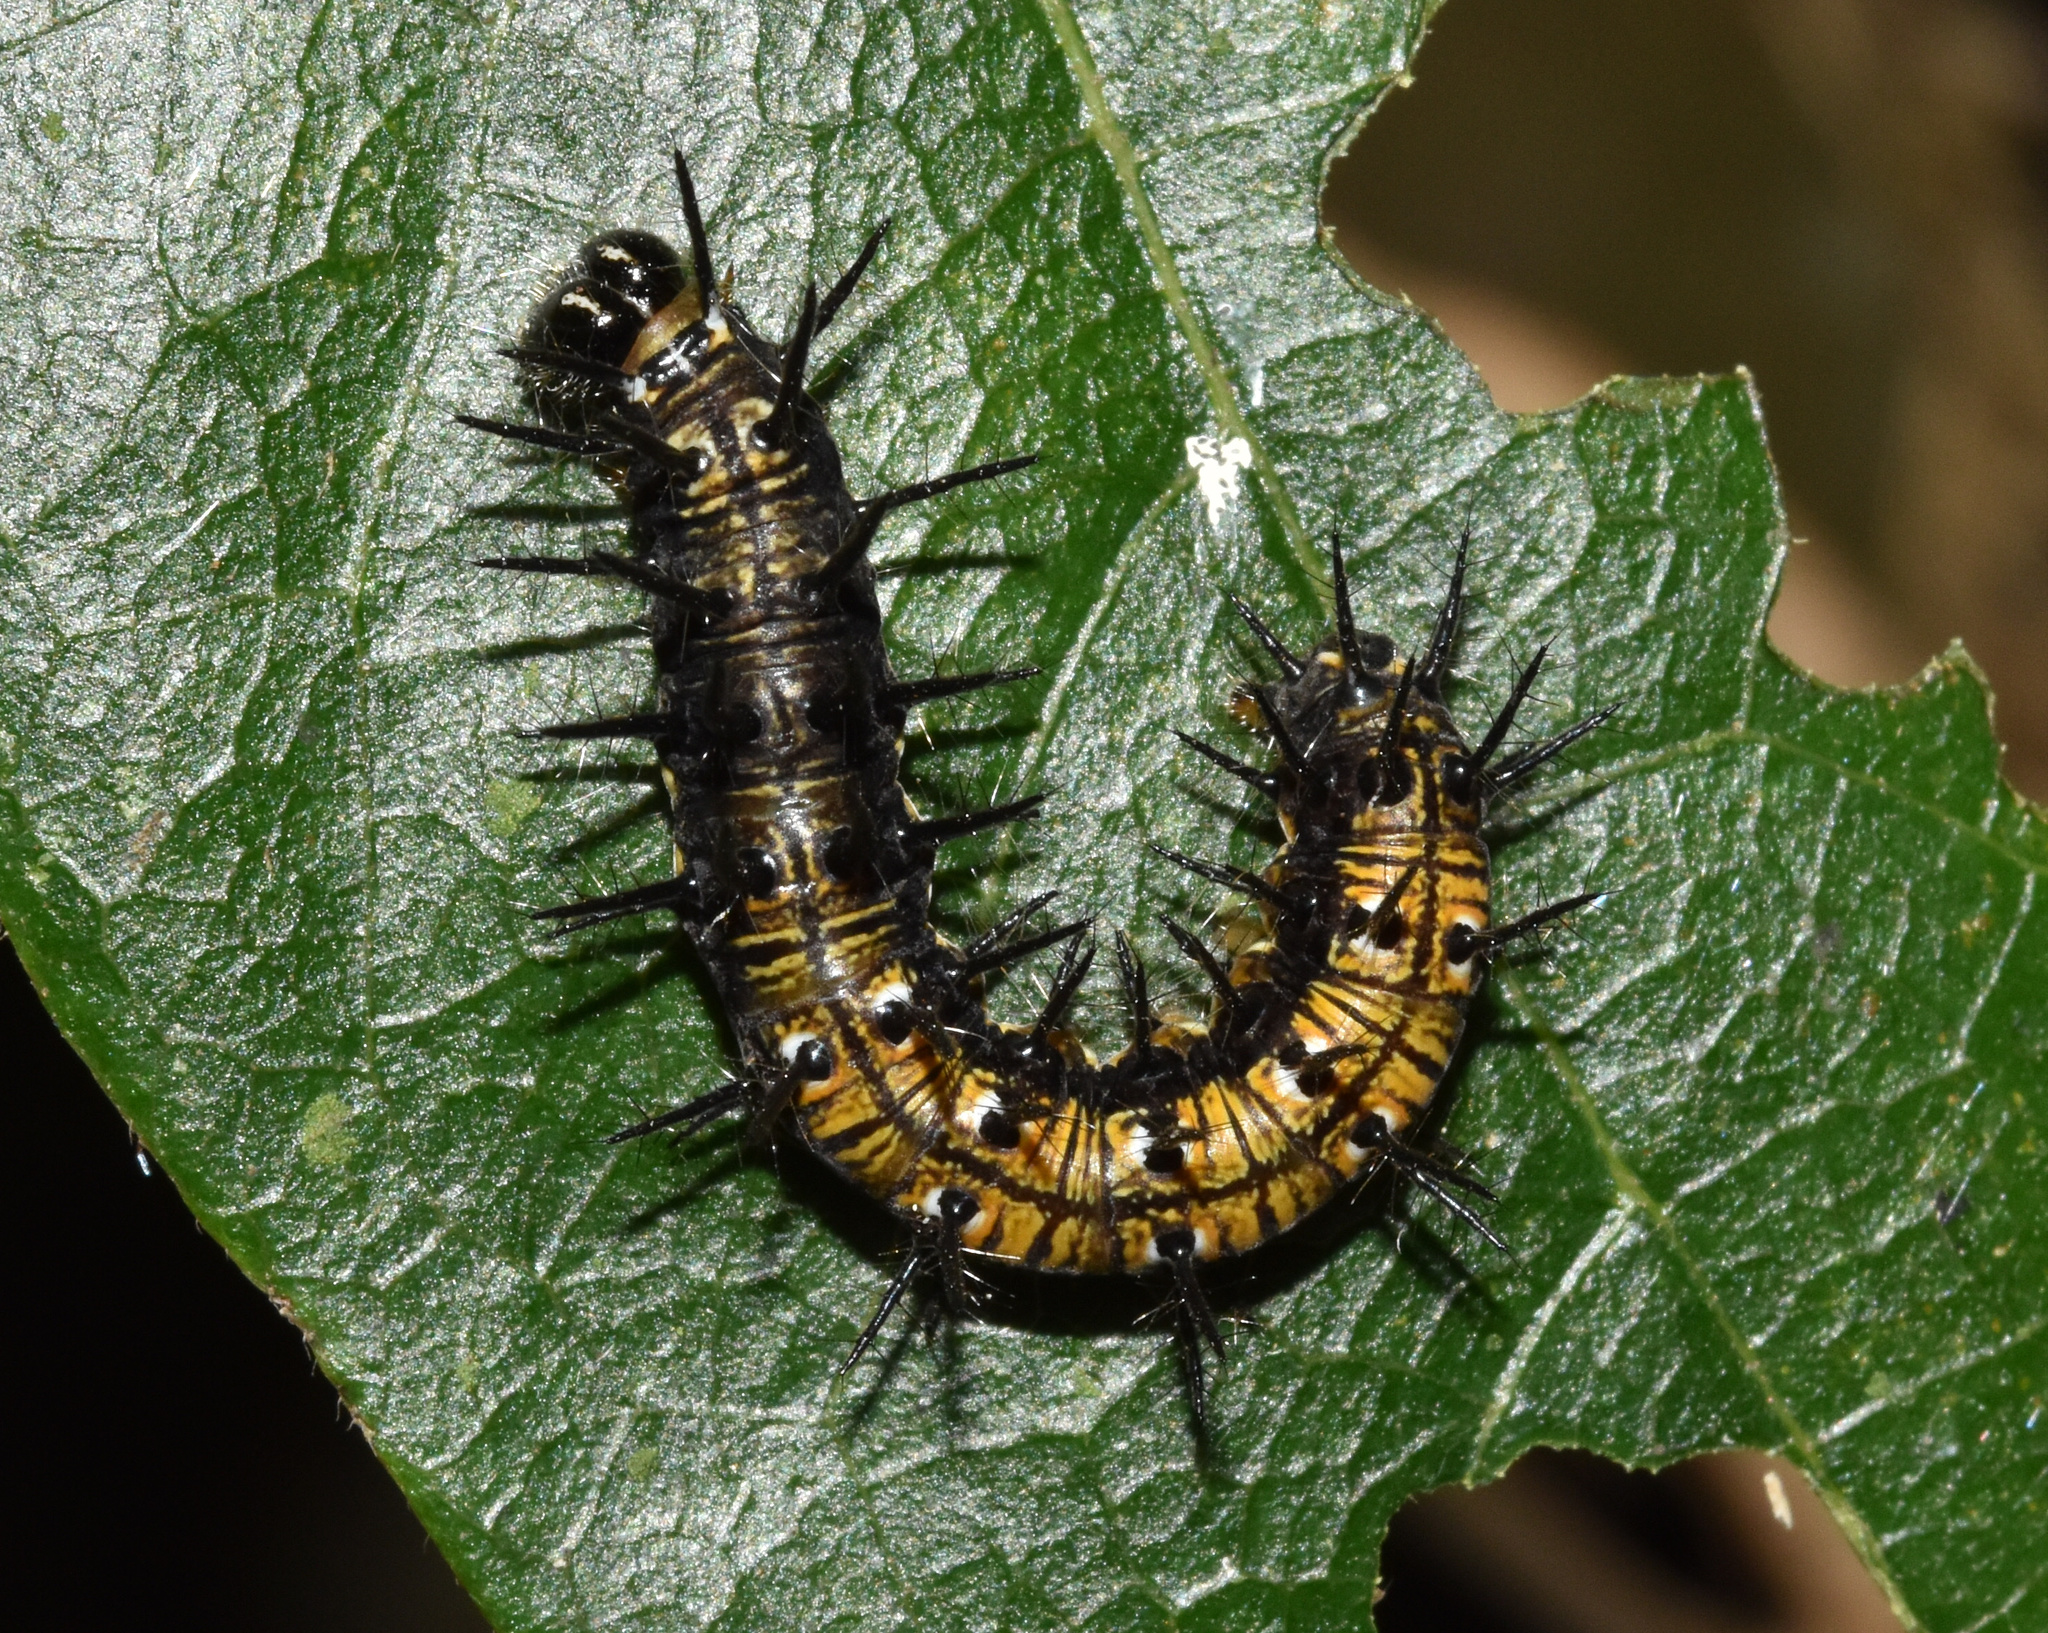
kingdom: Animalia
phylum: Arthropoda
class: Insecta
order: Lepidoptera
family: Nymphalidae
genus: Rubraea
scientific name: Rubraea
